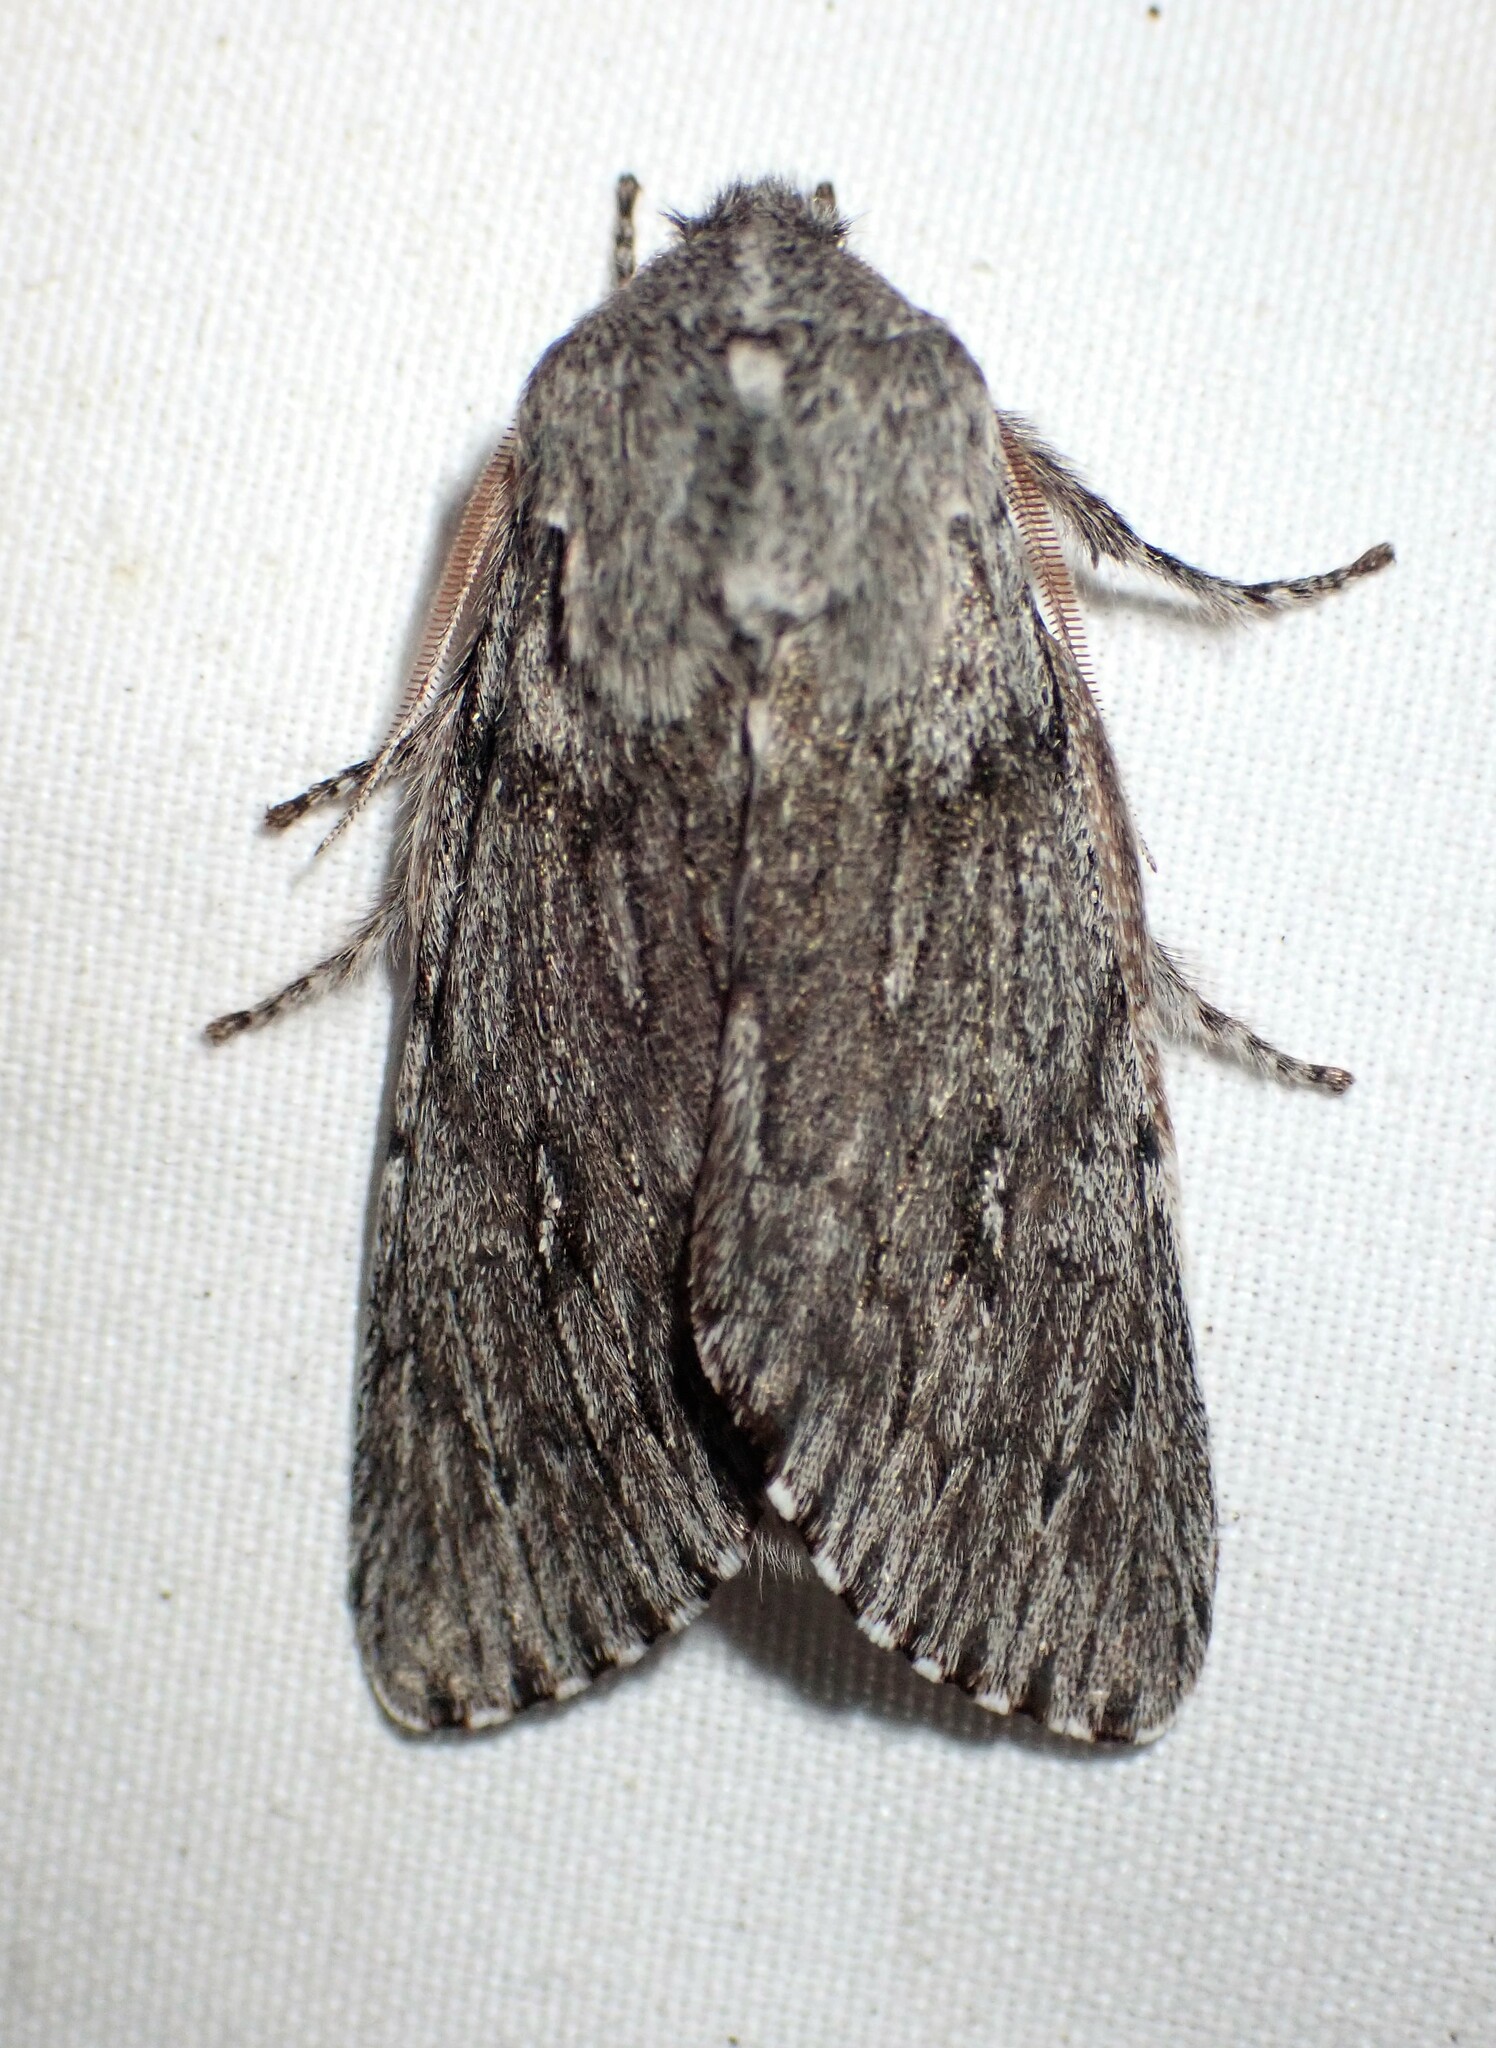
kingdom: Animalia
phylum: Arthropoda
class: Insecta
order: Lepidoptera
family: Noctuidae
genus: Brachionycha
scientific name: Brachionycha borealis
